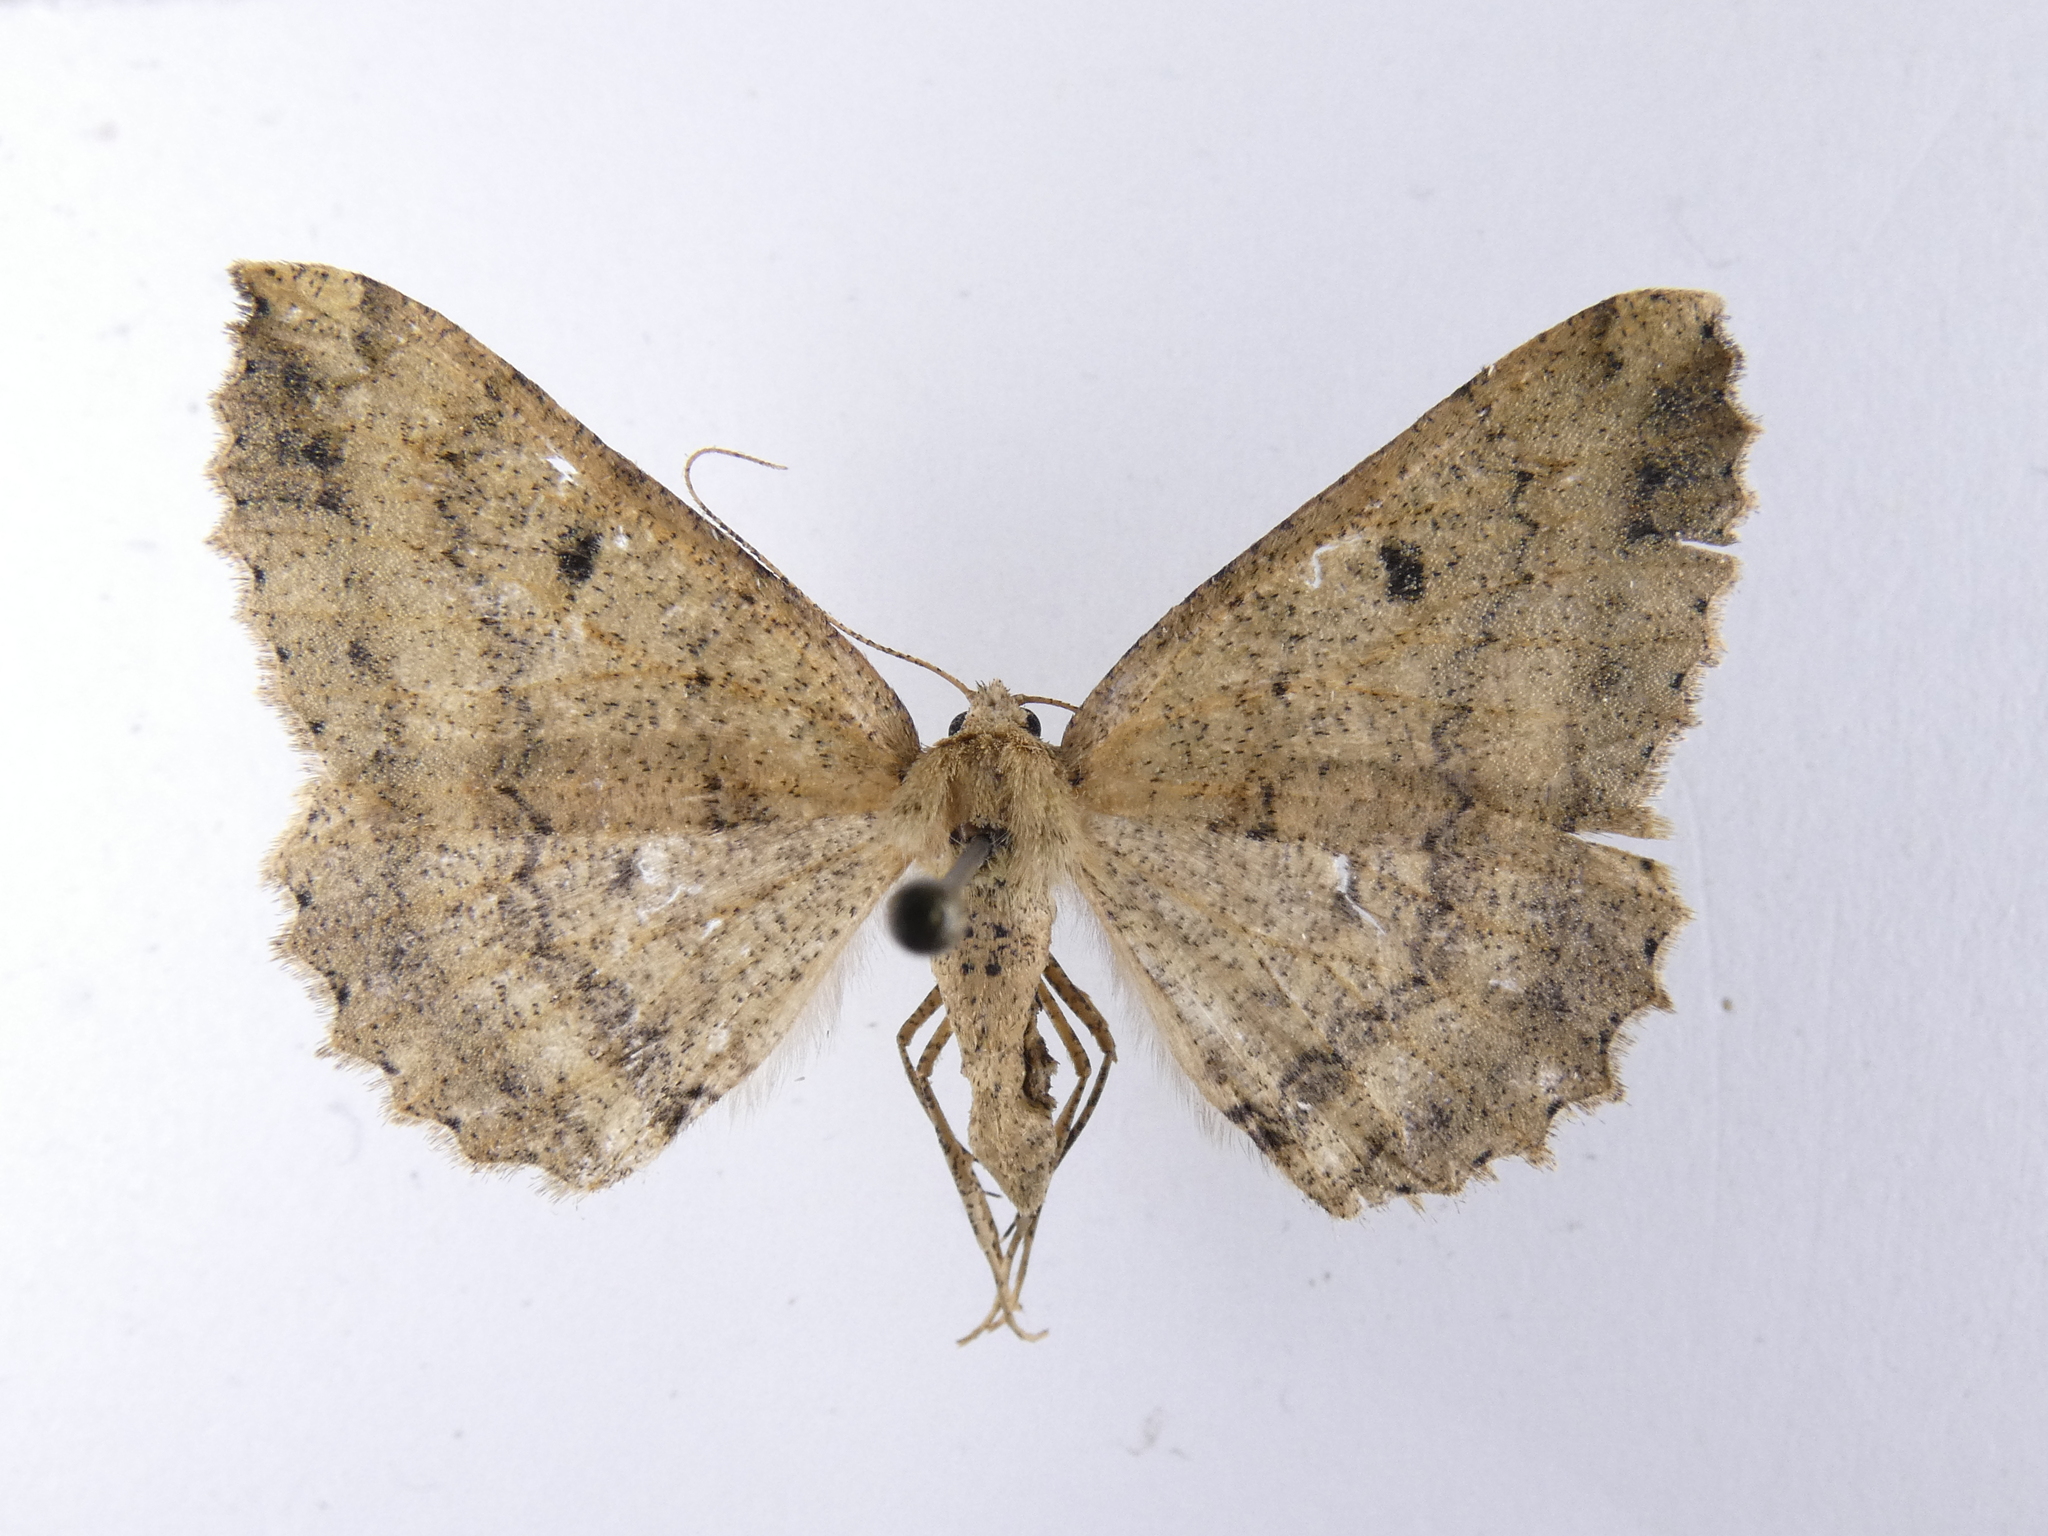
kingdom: Animalia
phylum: Arthropoda
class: Insecta
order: Lepidoptera
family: Geometridae
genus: Cleora
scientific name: Cleora scriptaria
